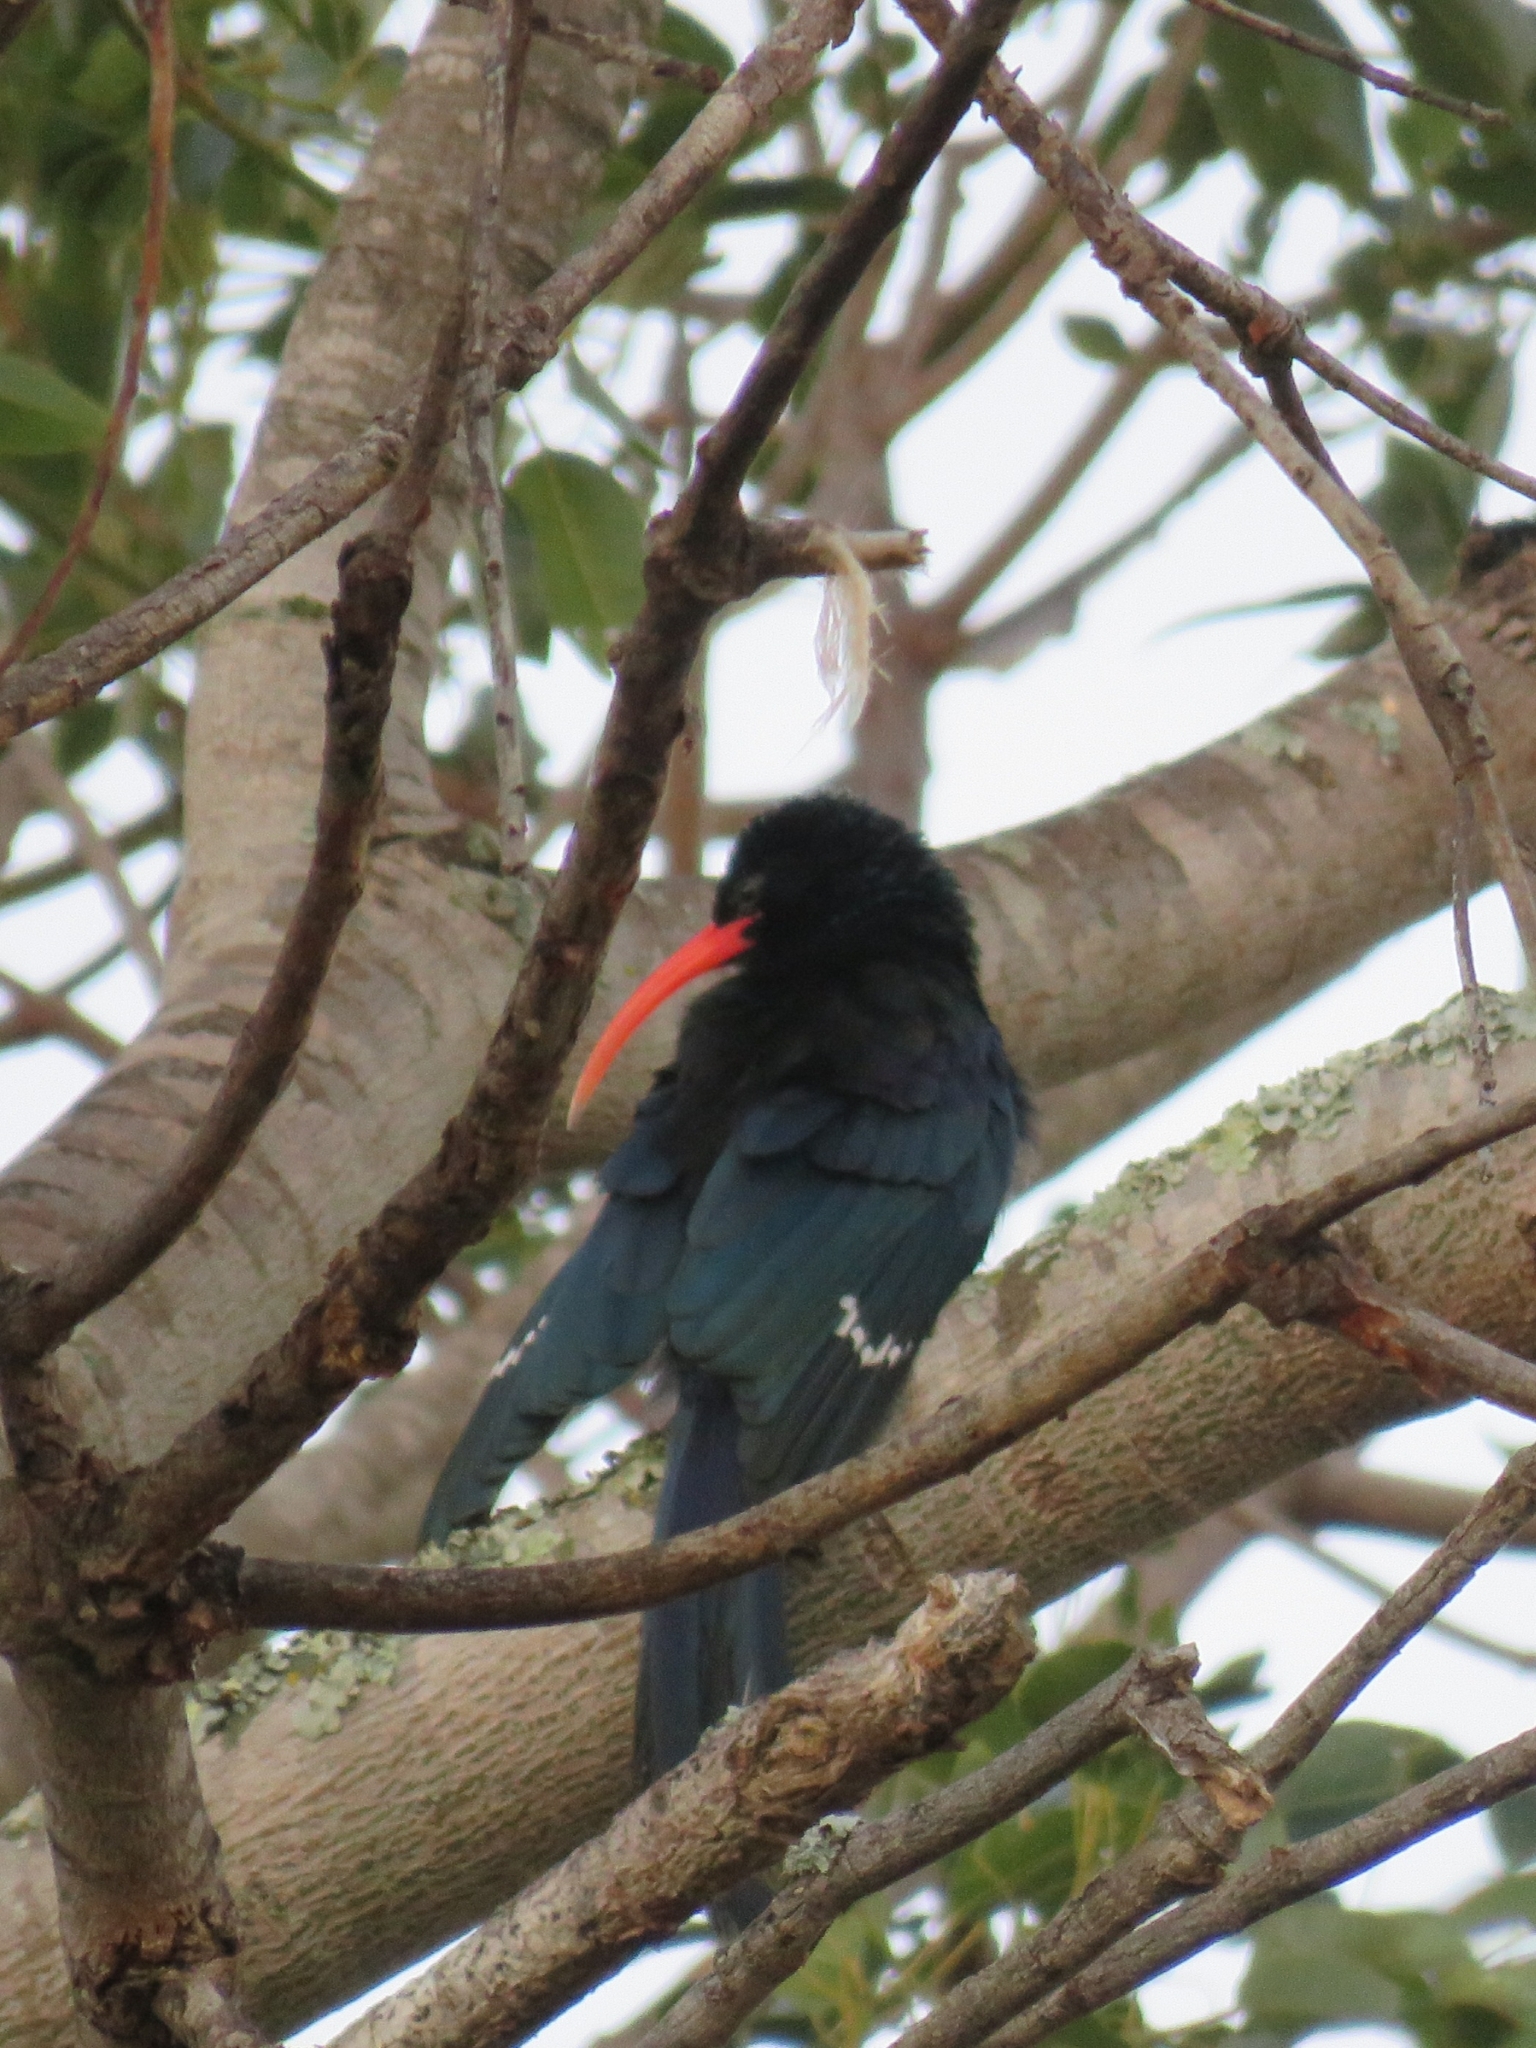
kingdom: Animalia
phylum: Chordata
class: Aves
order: Bucerotiformes
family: Phoeniculidae
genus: Phoeniculus
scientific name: Phoeniculus purpureus
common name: Green woodhoopoe
